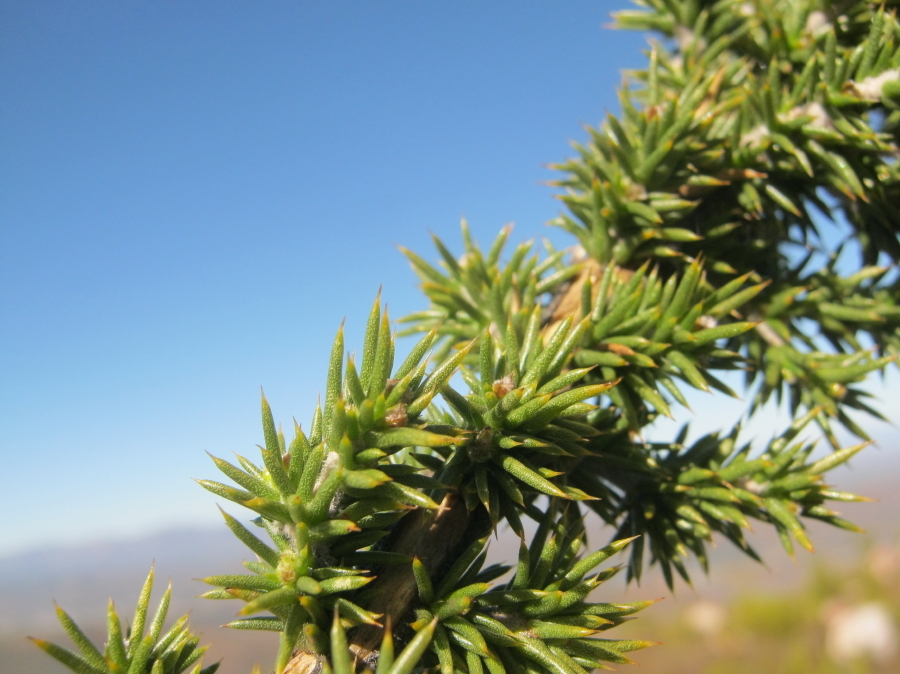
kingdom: Plantae
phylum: Tracheophyta
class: Magnoliopsida
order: Fabales
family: Fabaceae
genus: Aspalathus
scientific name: Aspalathus collina
